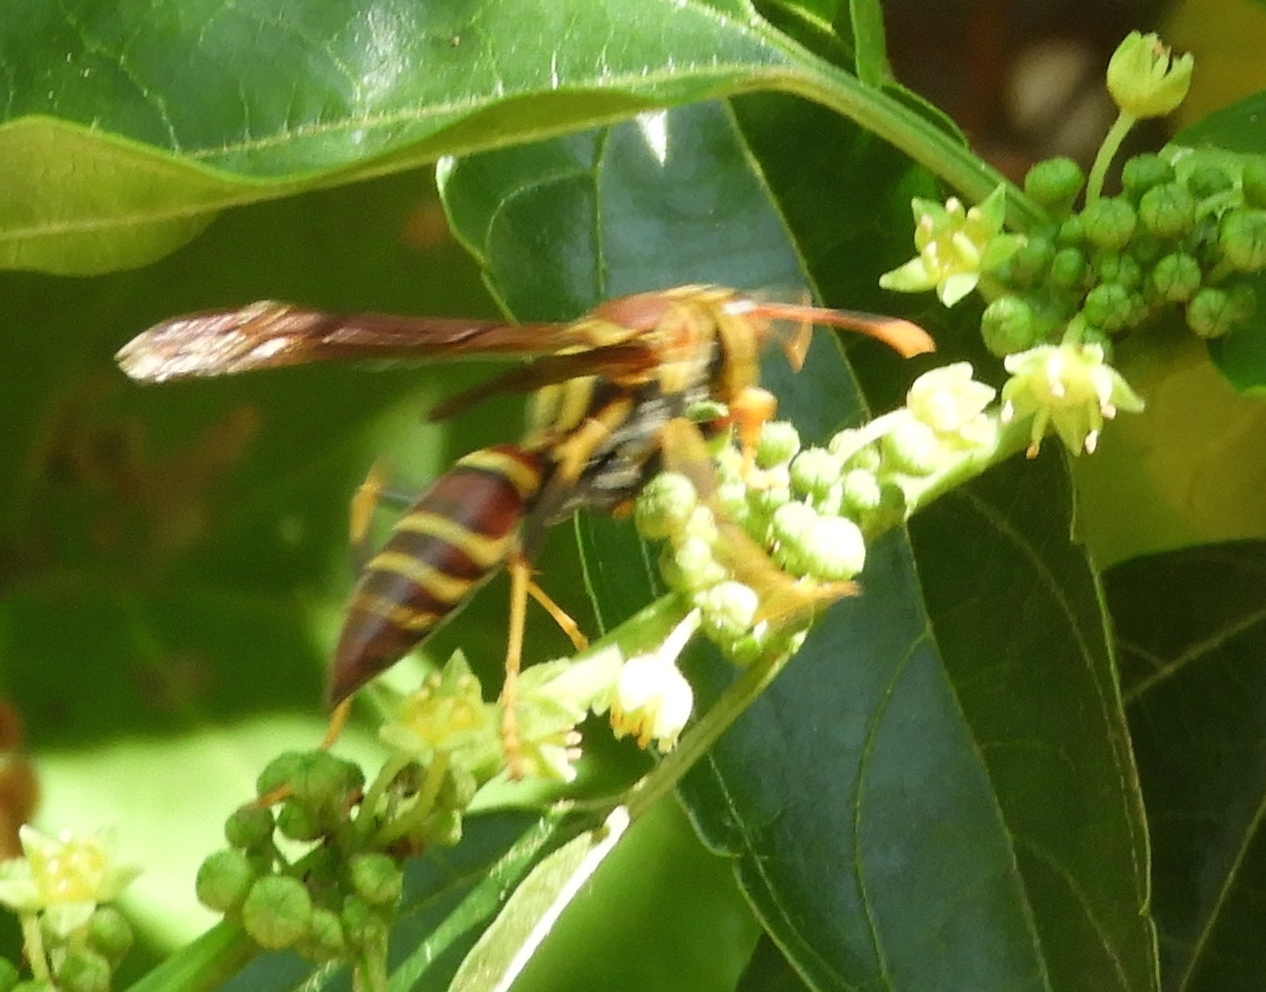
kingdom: Animalia
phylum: Arthropoda
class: Insecta
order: Hymenoptera
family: Eumenidae
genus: Polistes
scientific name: Polistes instabilis
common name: Unstable paper wasp
